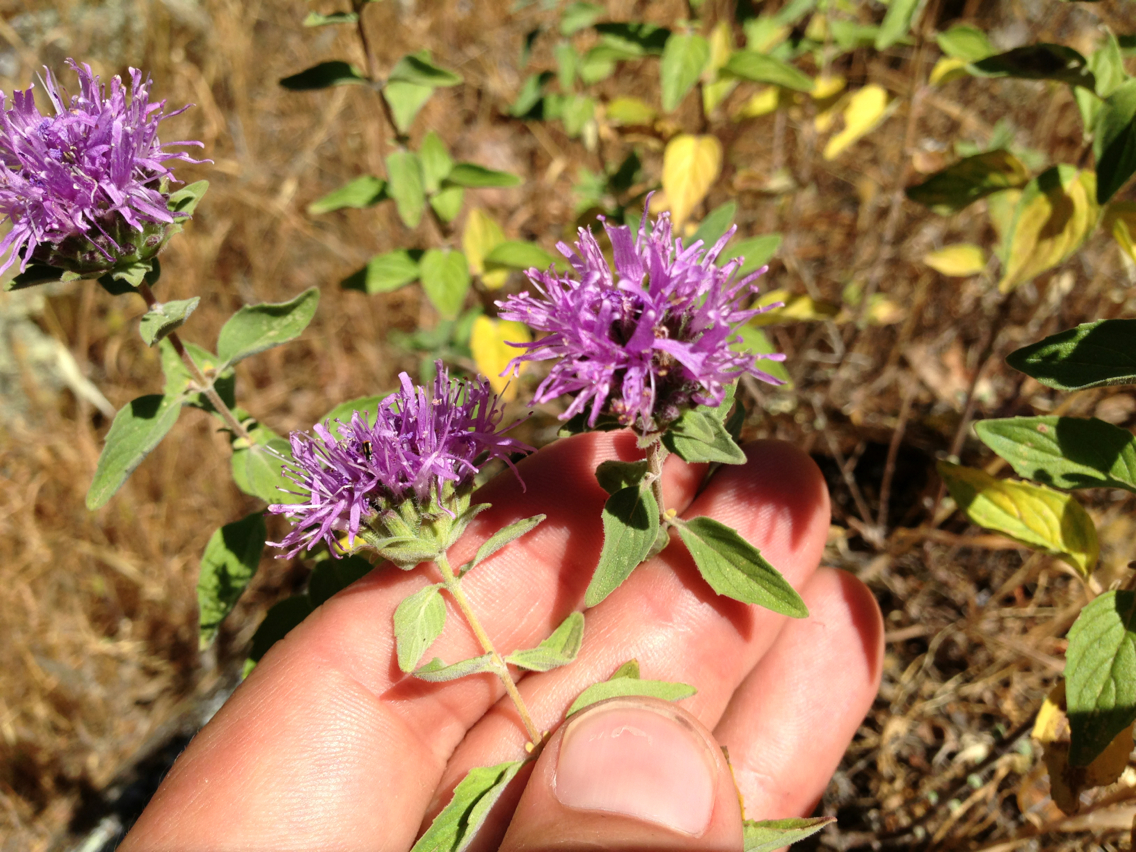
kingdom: Plantae
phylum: Tracheophyta
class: Magnoliopsida
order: Lamiales
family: Lamiaceae
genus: Monardella
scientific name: Monardella odoratissima
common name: Pacific monardella
